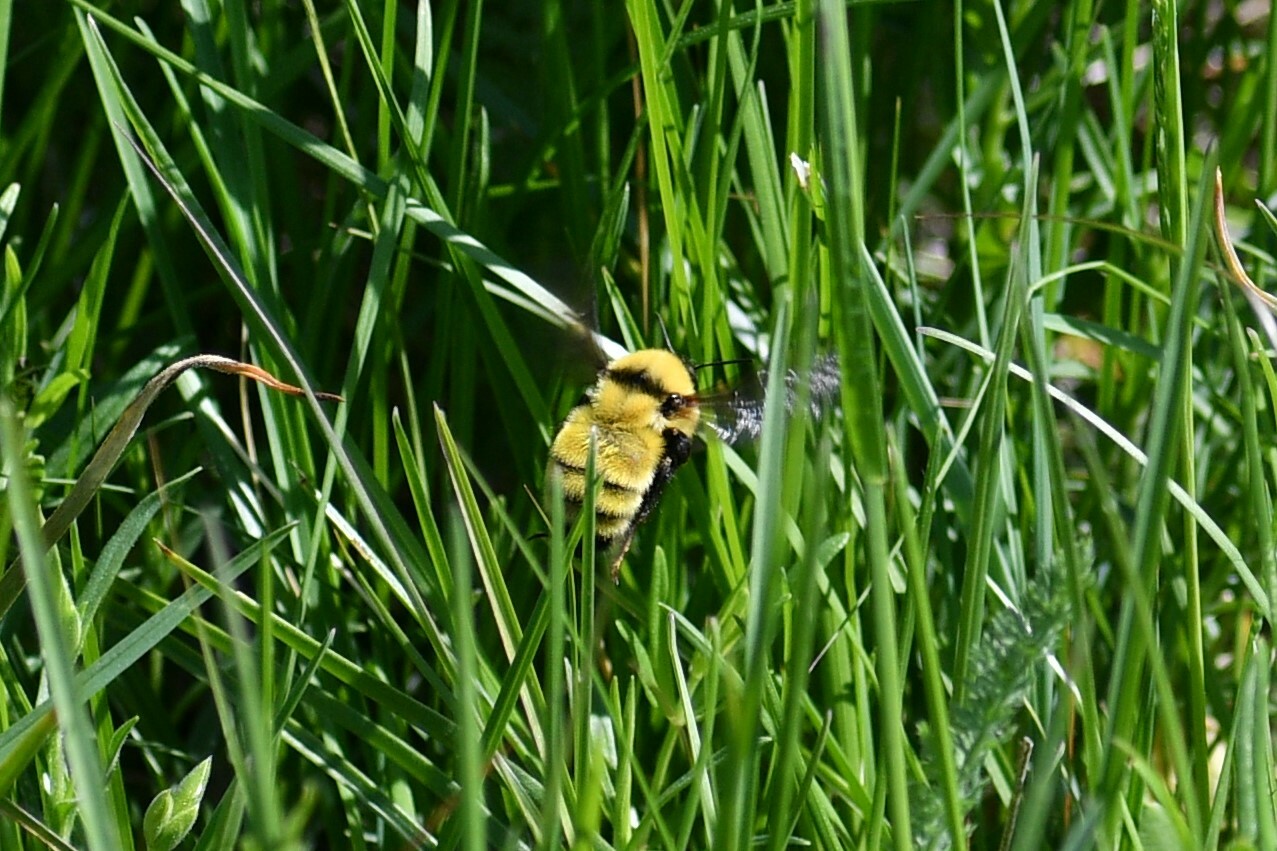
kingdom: Animalia
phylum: Arthropoda
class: Insecta
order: Hymenoptera
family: Apidae
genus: Bombus
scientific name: Bombus fervidus
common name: Yellow bumble bee
